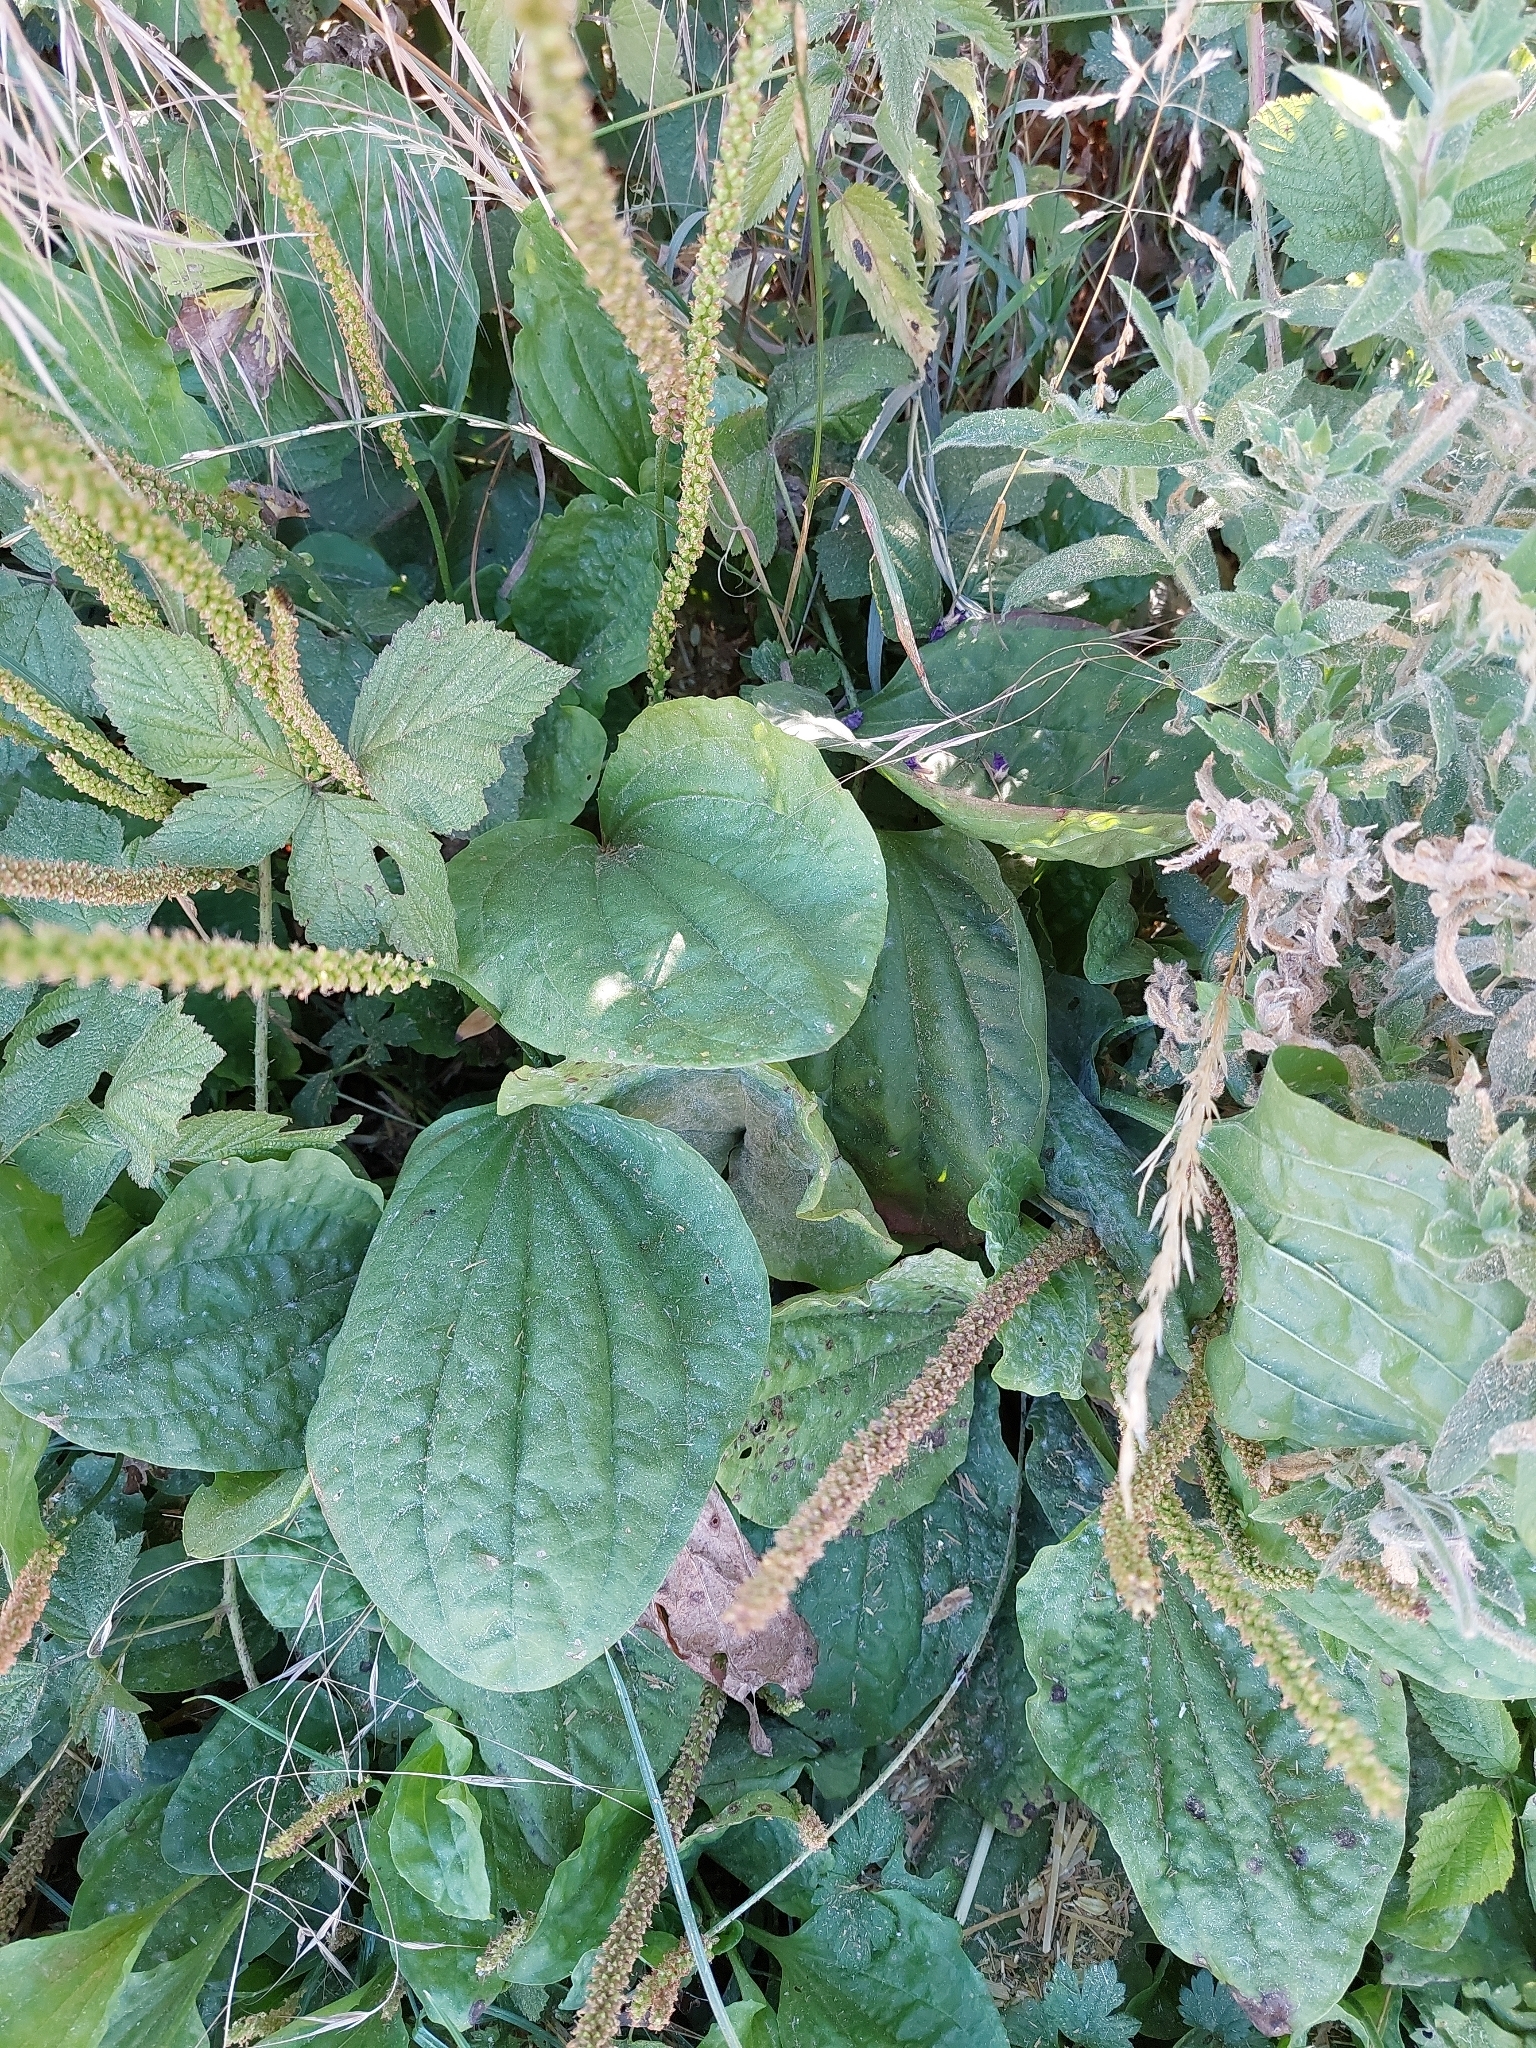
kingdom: Plantae
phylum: Tracheophyta
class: Magnoliopsida
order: Lamiales
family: Plantaginaceae
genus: Plantago
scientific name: Plantago major
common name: Common plantain
